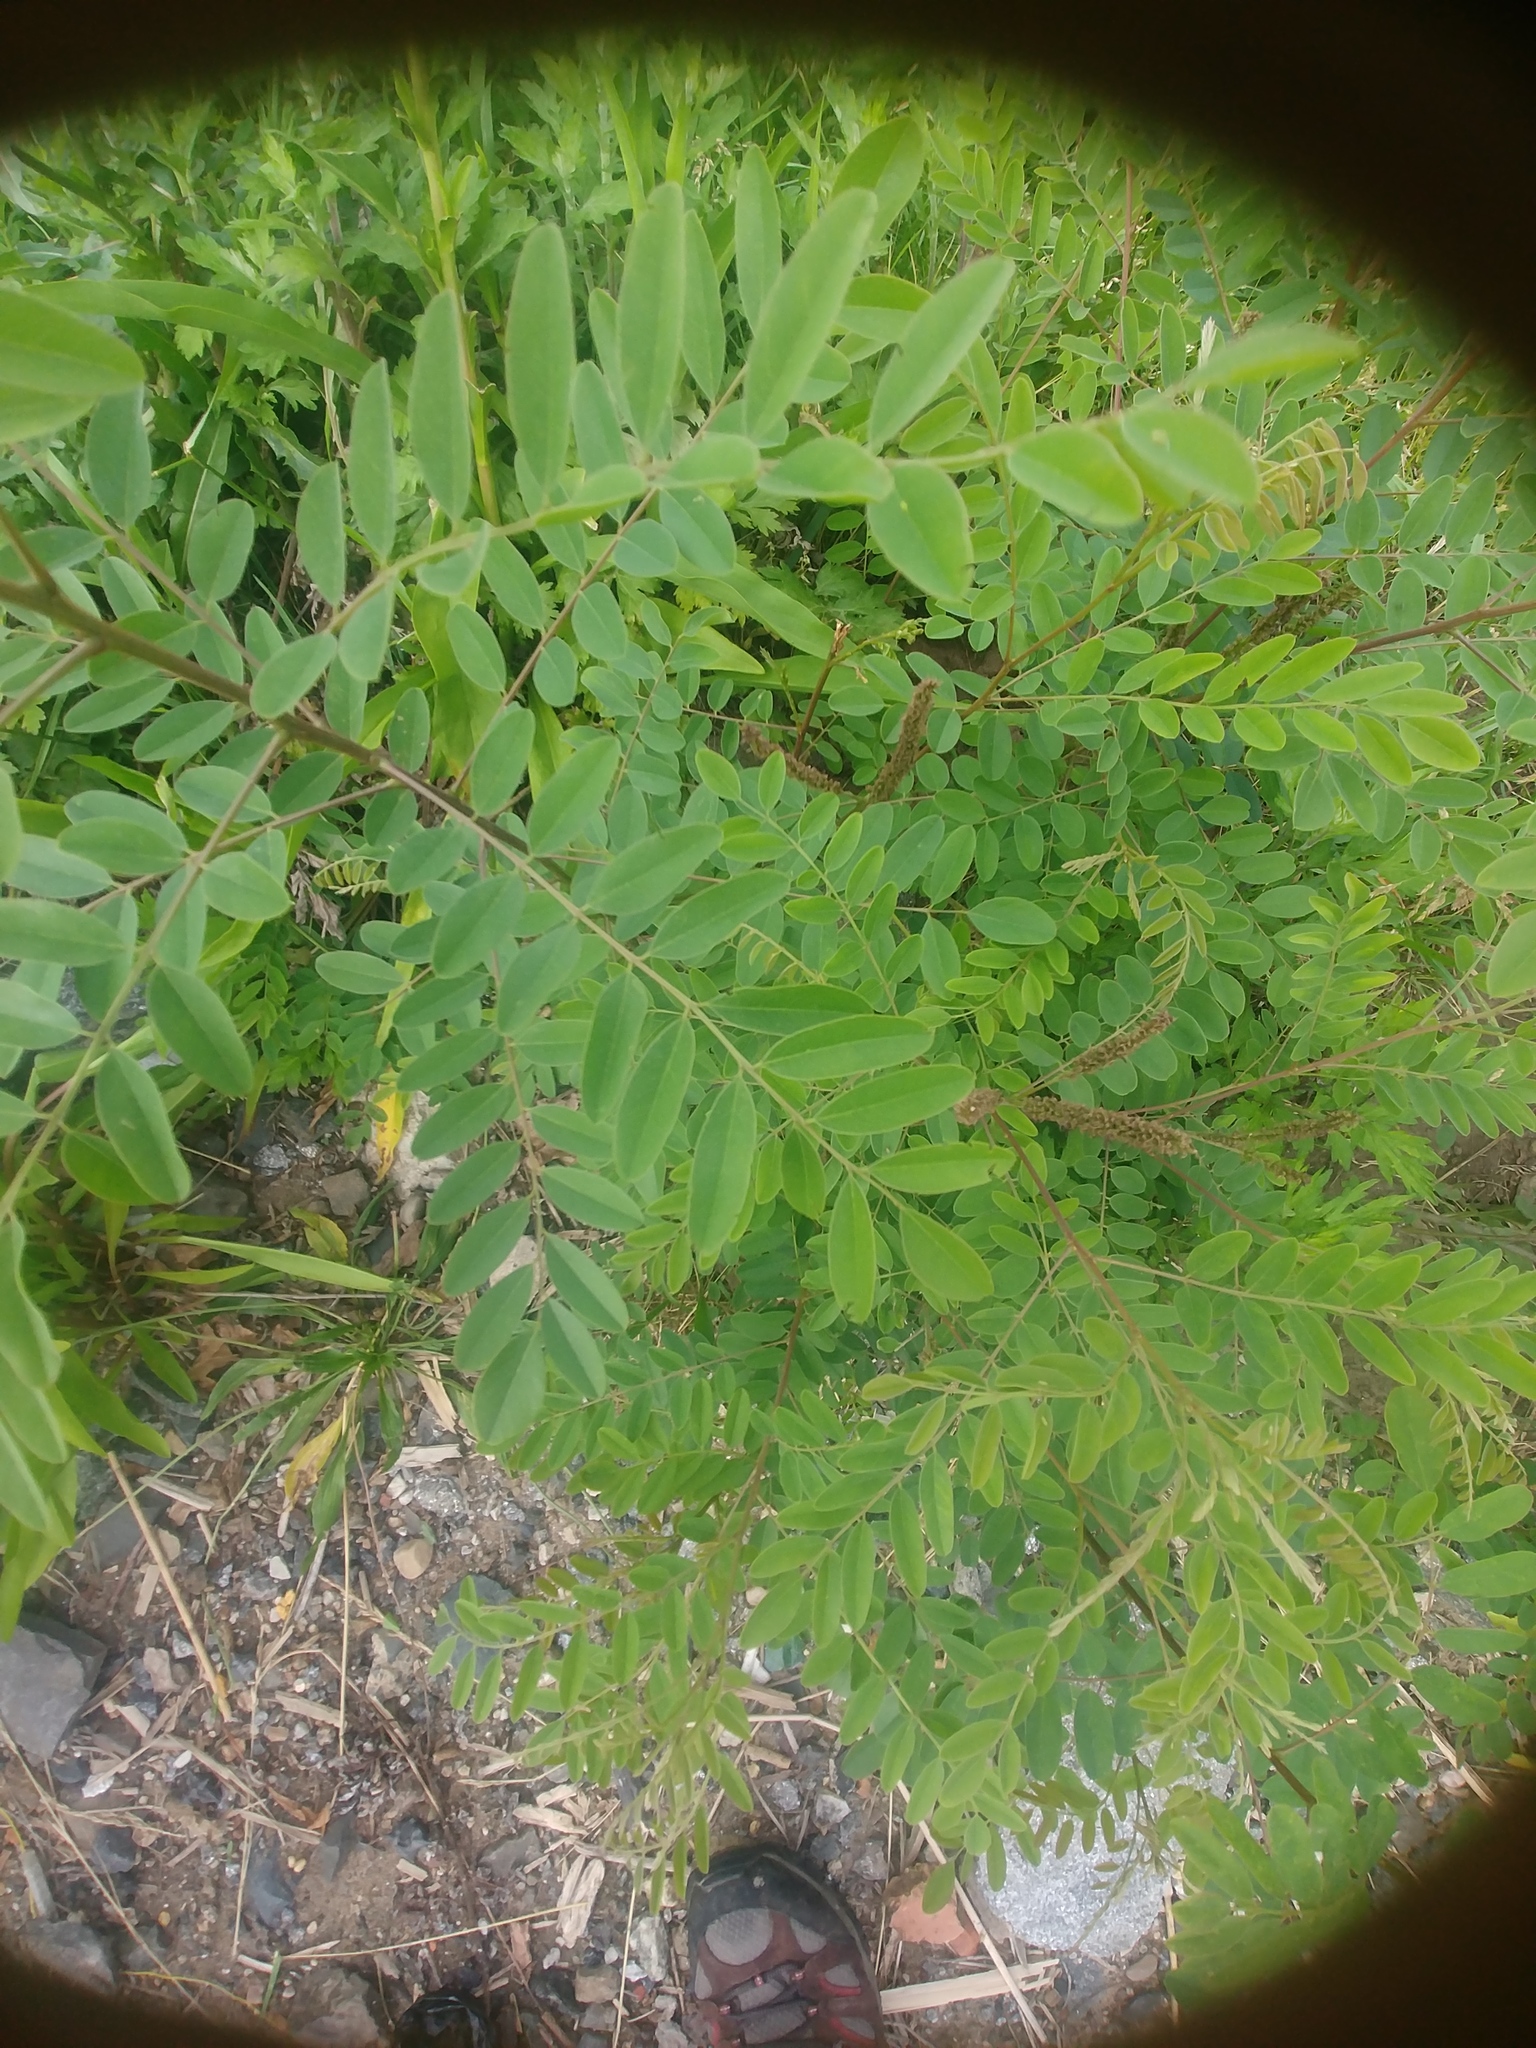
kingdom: Plantae
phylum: Tracheophyta
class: Magnoliopsida
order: Fabales
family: Fabaceae
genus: Amorpha
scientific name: Amorpha fruticosa
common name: False indigo
